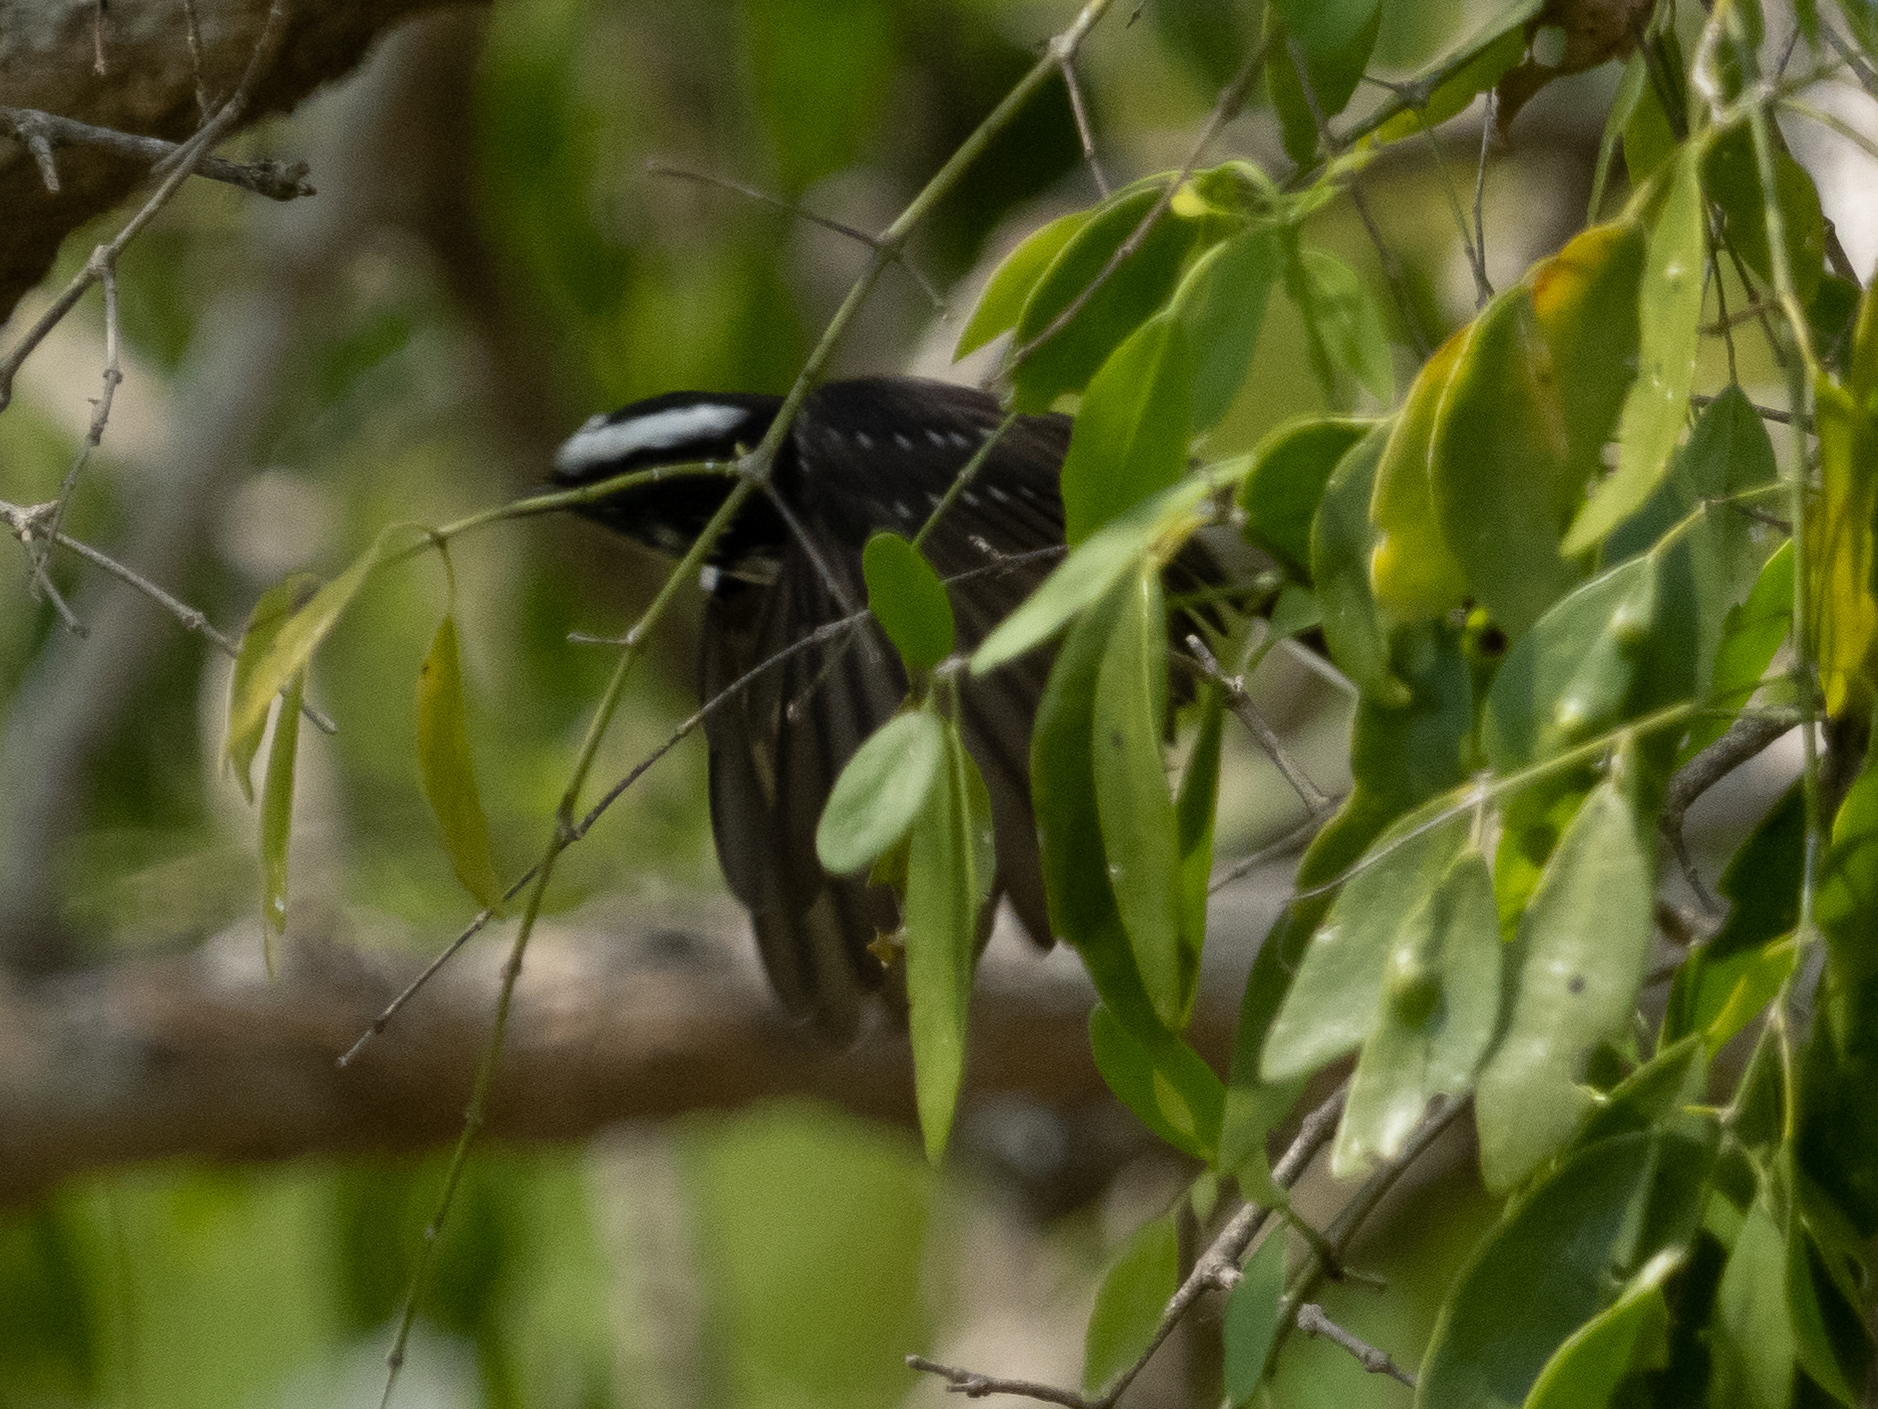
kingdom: Animalia
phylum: Chordata
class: Aves
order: Passeriformes
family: Rhipiduridae
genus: Rhipidura
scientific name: Rhipidura aureola
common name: White-browed fantail
